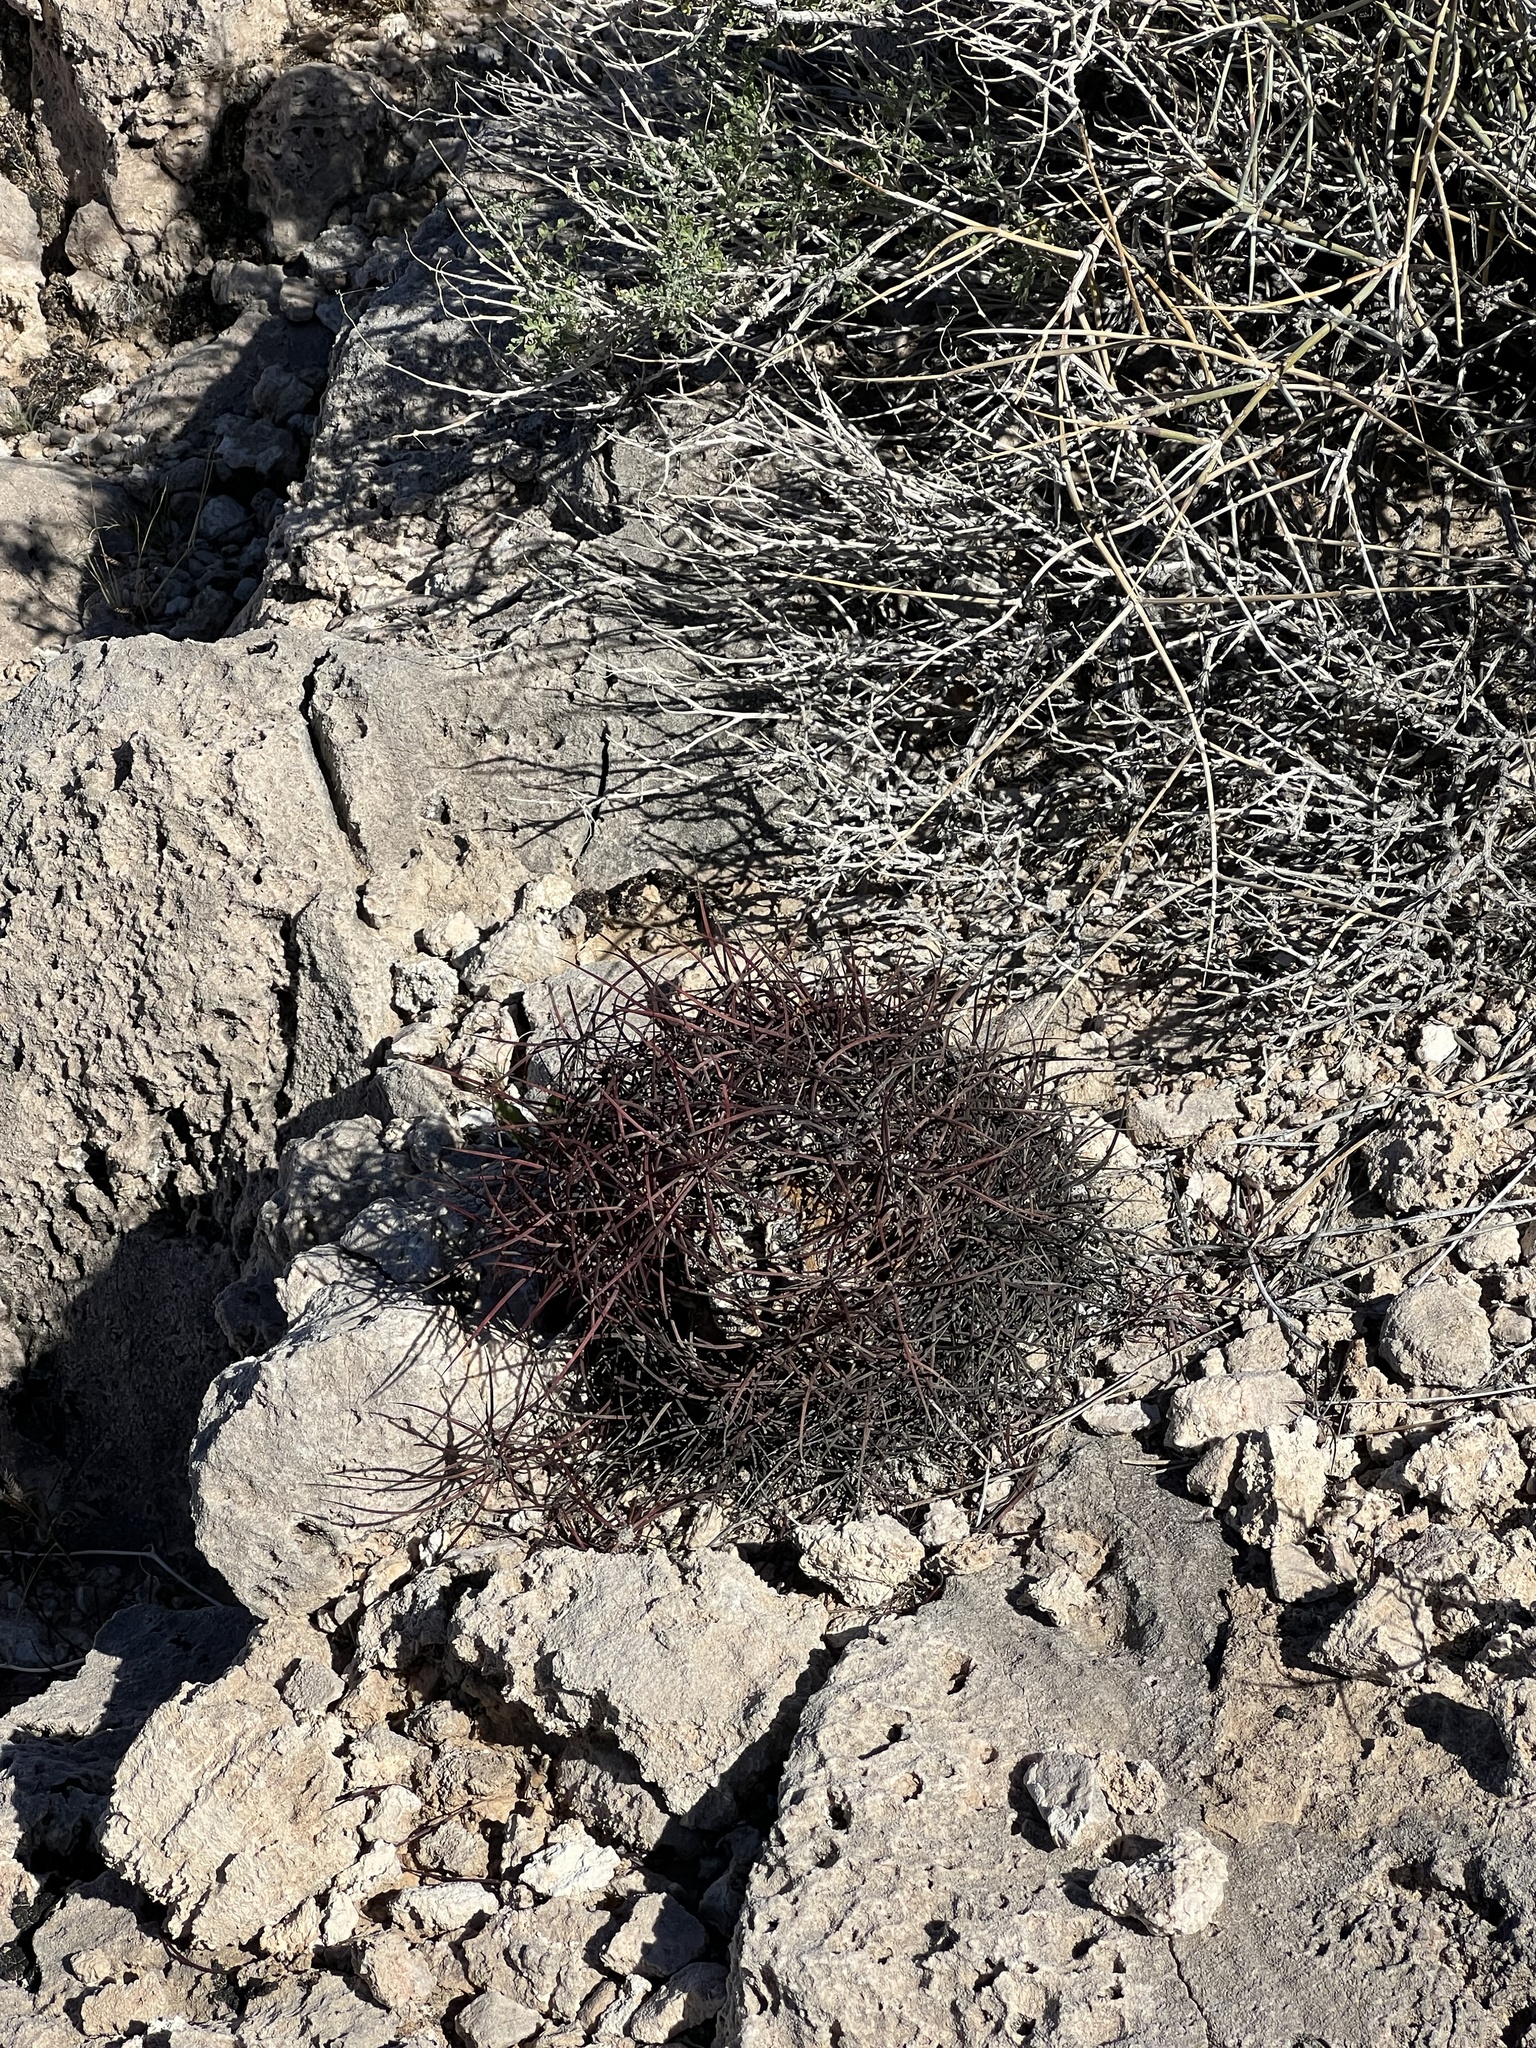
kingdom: Plantae
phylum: Tracheophyta
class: Magnoliopsida
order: Caryophyllales
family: Cactaceae
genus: Sclerocactus
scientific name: Sclerocactus johnsonii
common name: Eight-spine fishhook cactus
